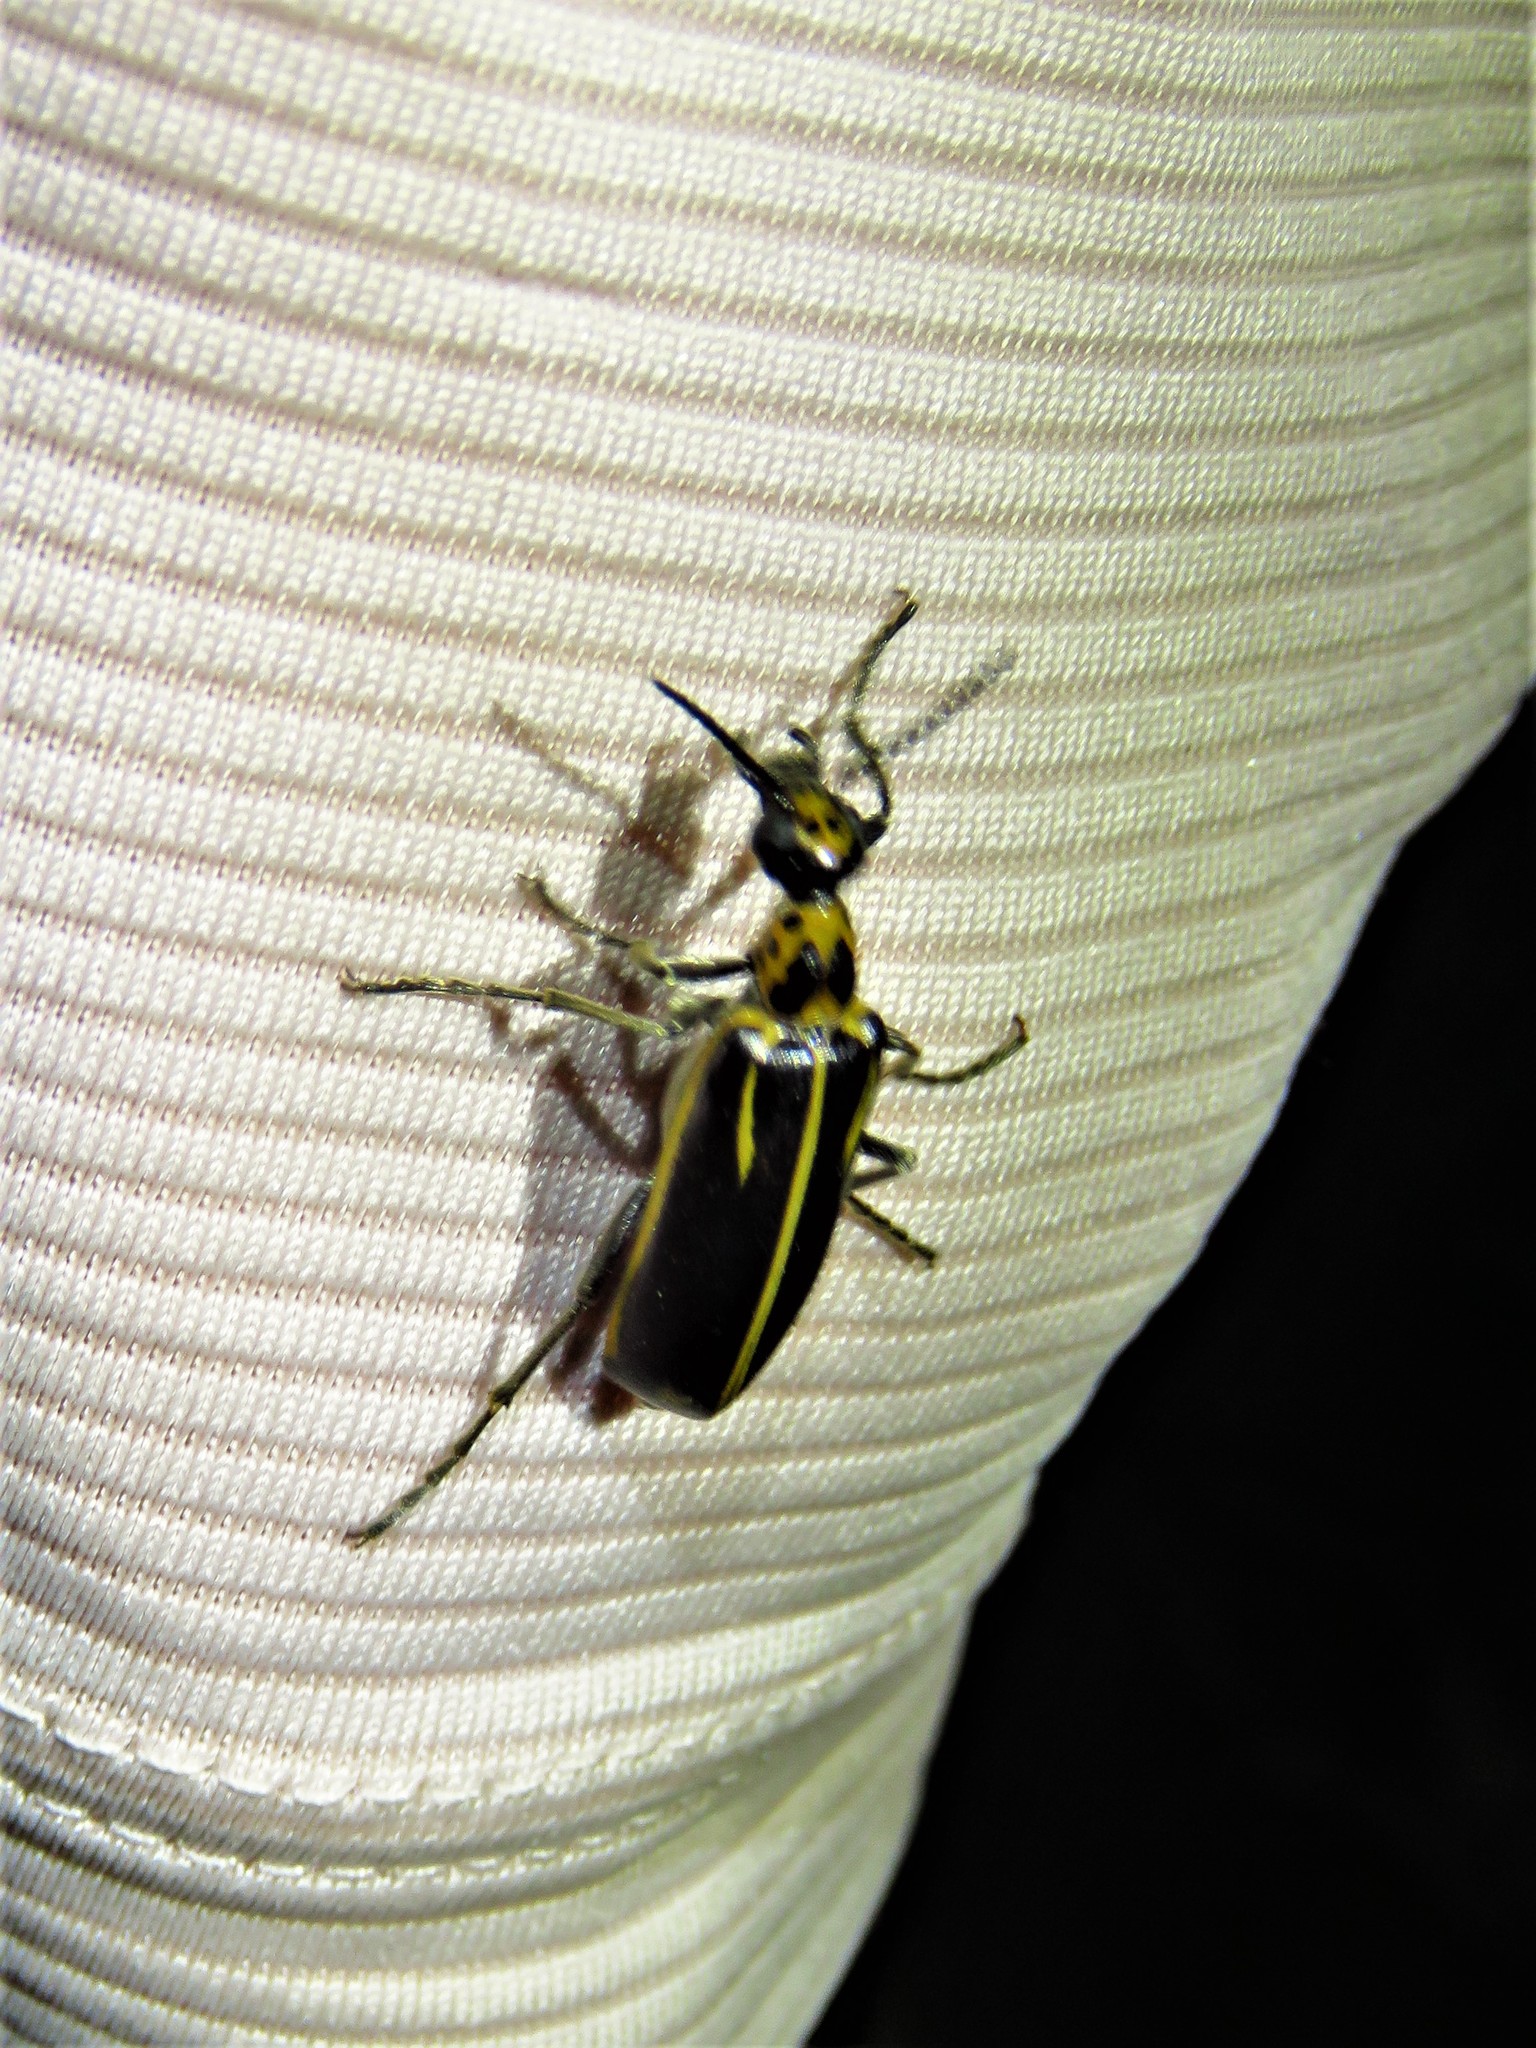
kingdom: Animalia
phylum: Arthropoda
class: Insecta
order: Coleoptera
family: Meloidae
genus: Pyrota
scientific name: Pyrota insulata
